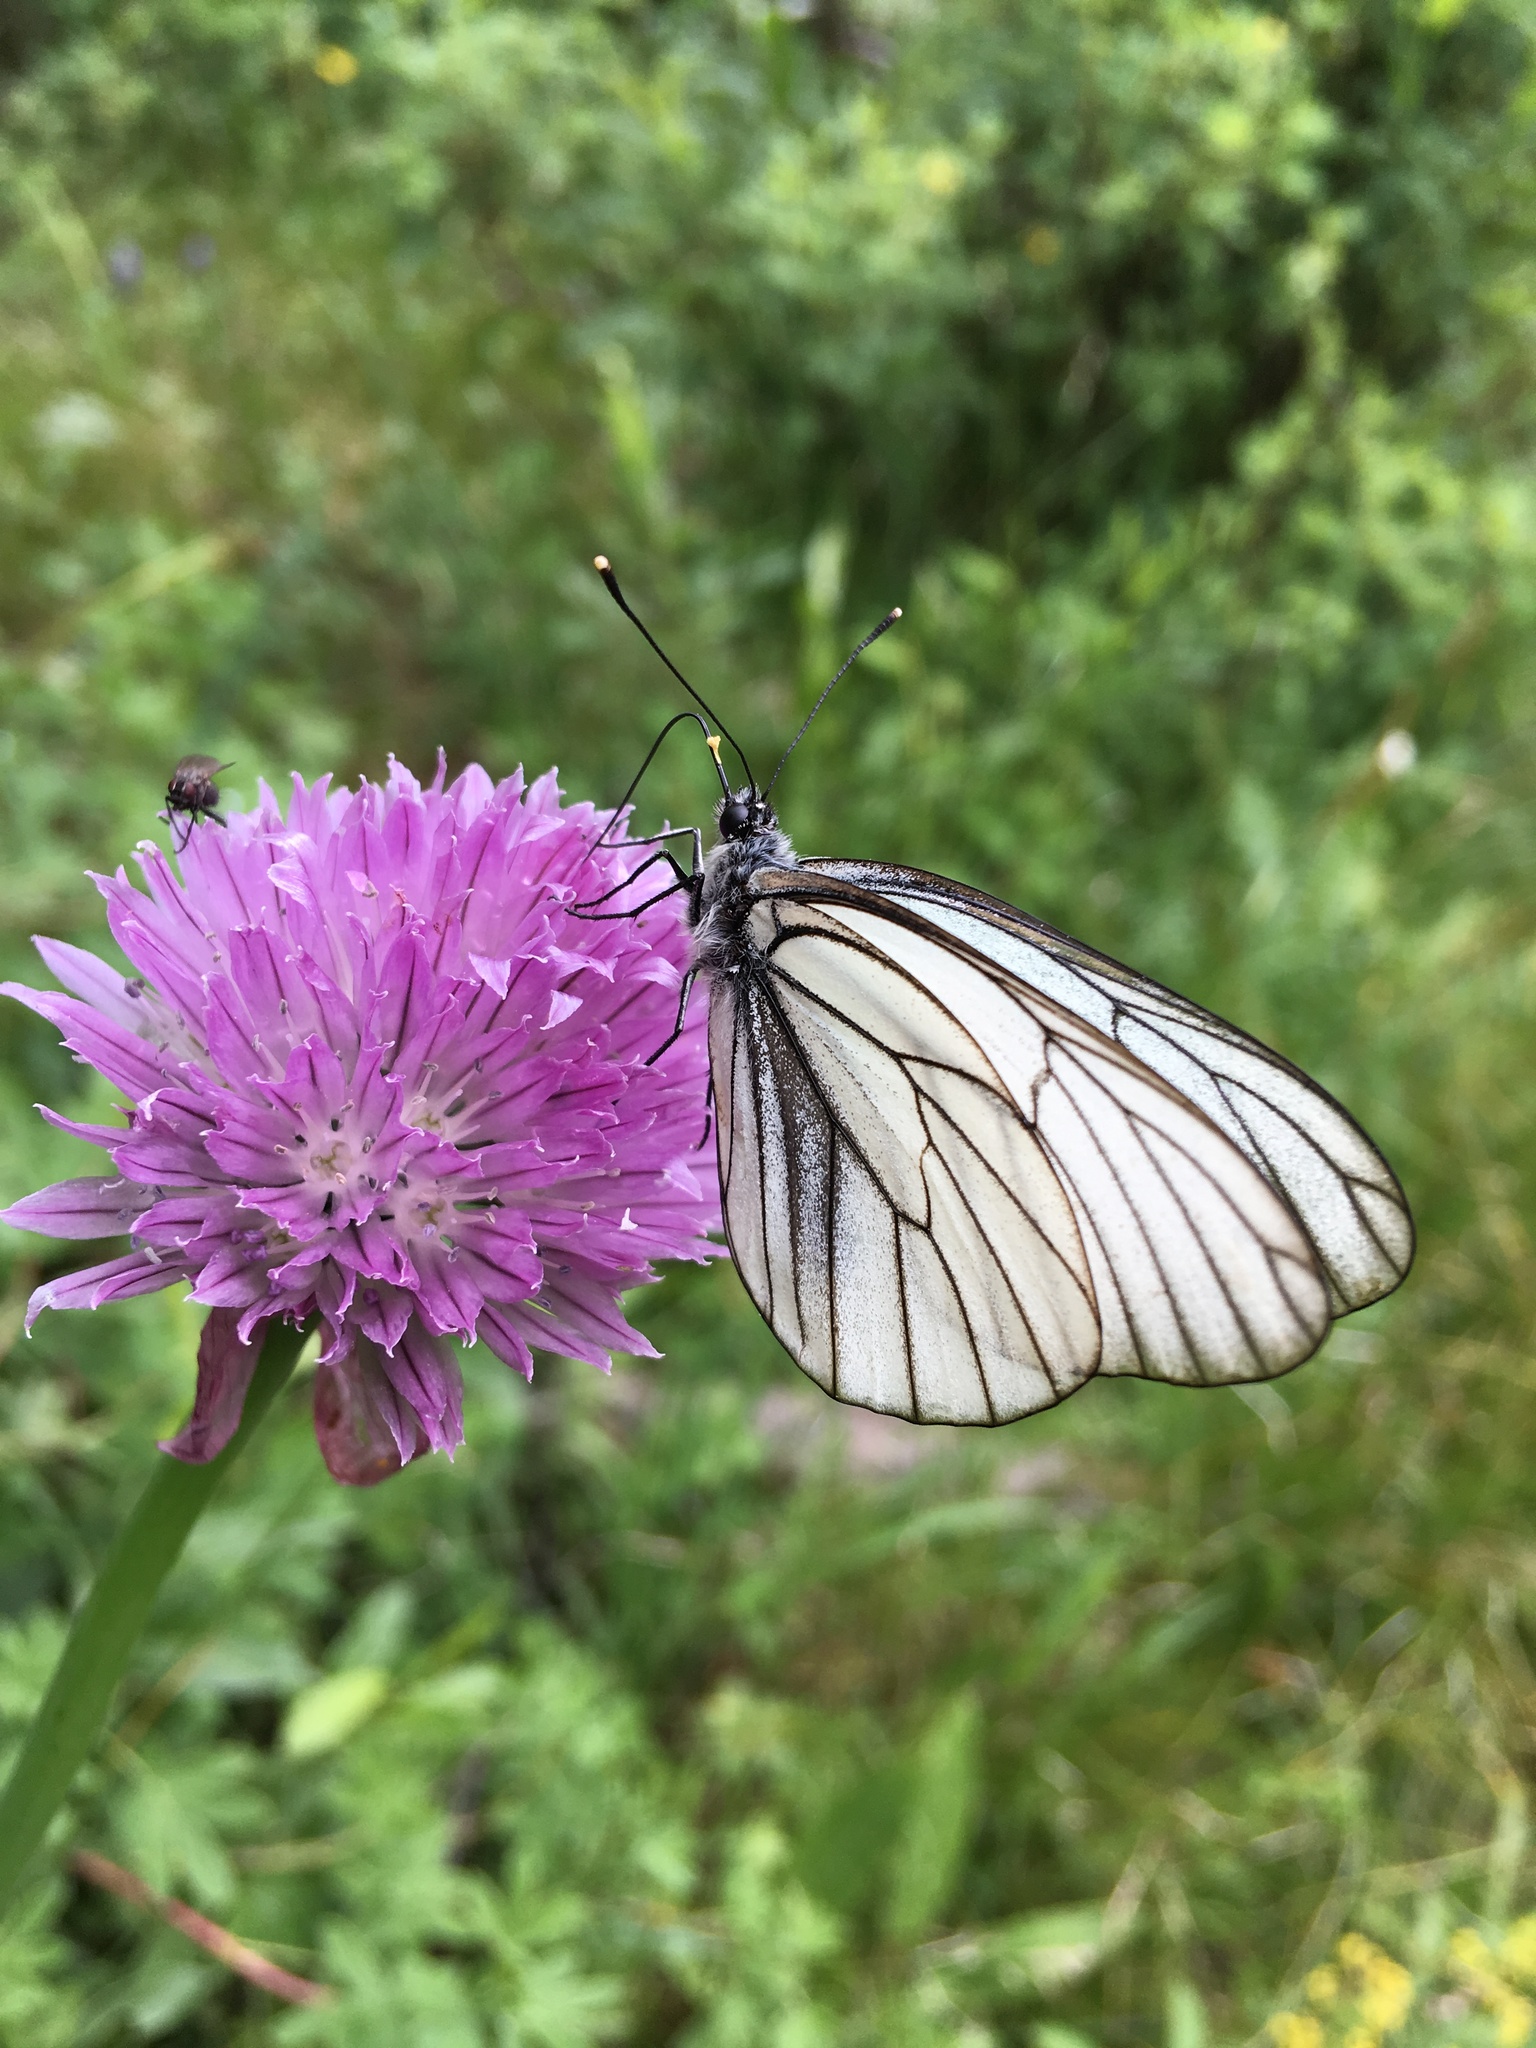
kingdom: Animalia
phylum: Arthropoda
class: Insecta
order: Lepidoptera
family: Pieridae
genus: Aporia
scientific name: Aporia crataegi
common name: Black-veined white
